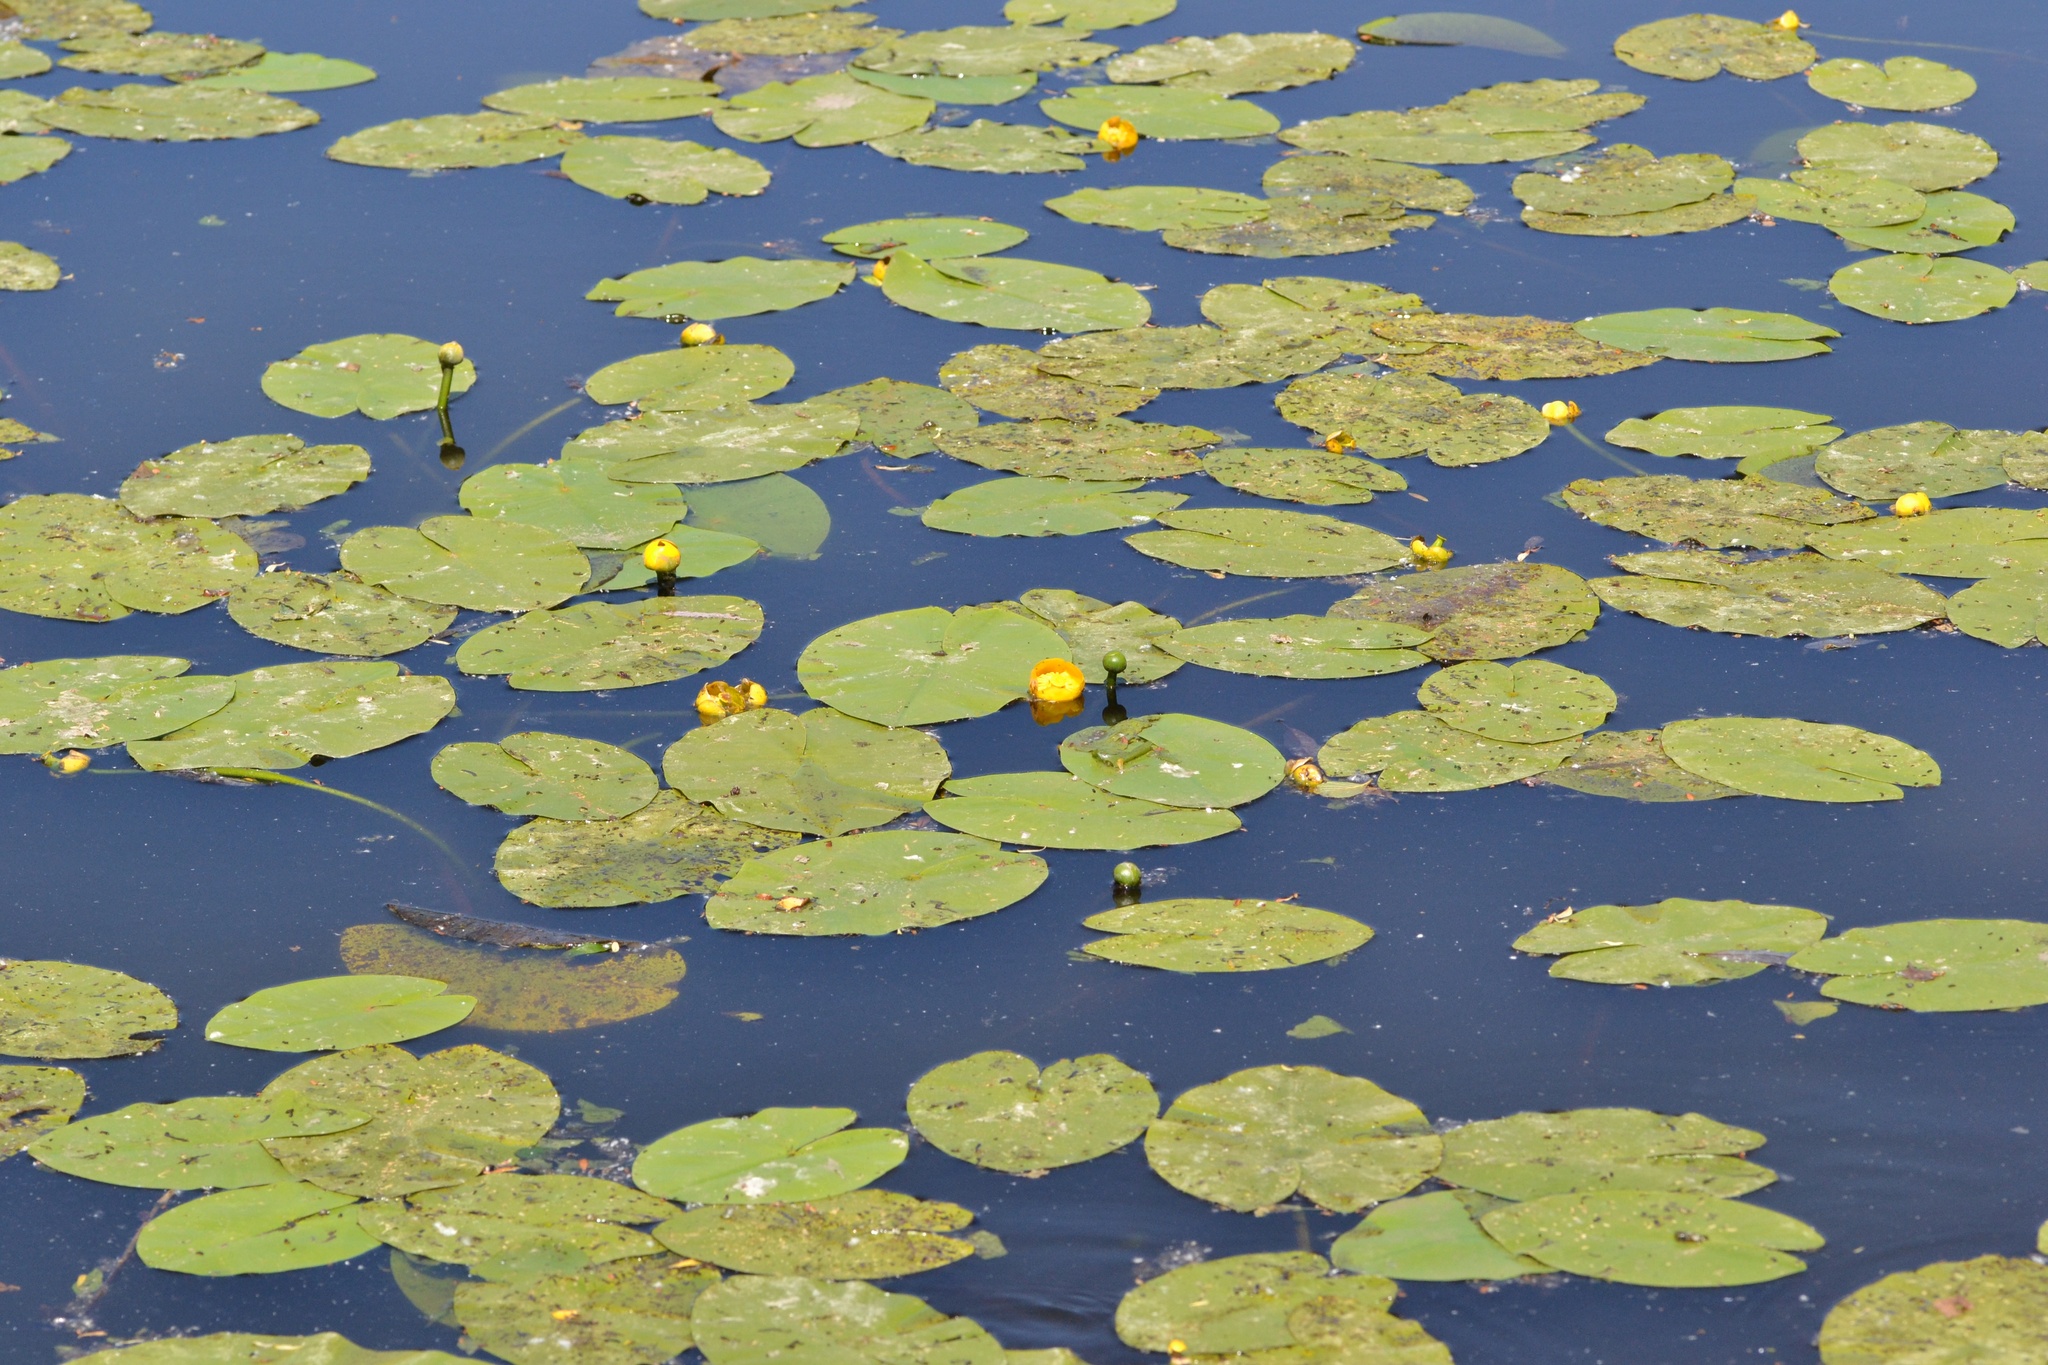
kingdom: Plantae
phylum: Tracheophyta
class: Magnoliopsida
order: Nymphaeales
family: Nymphaeaceae
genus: Nuphar
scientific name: Nuphar lutea
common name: Yellow water-lily
